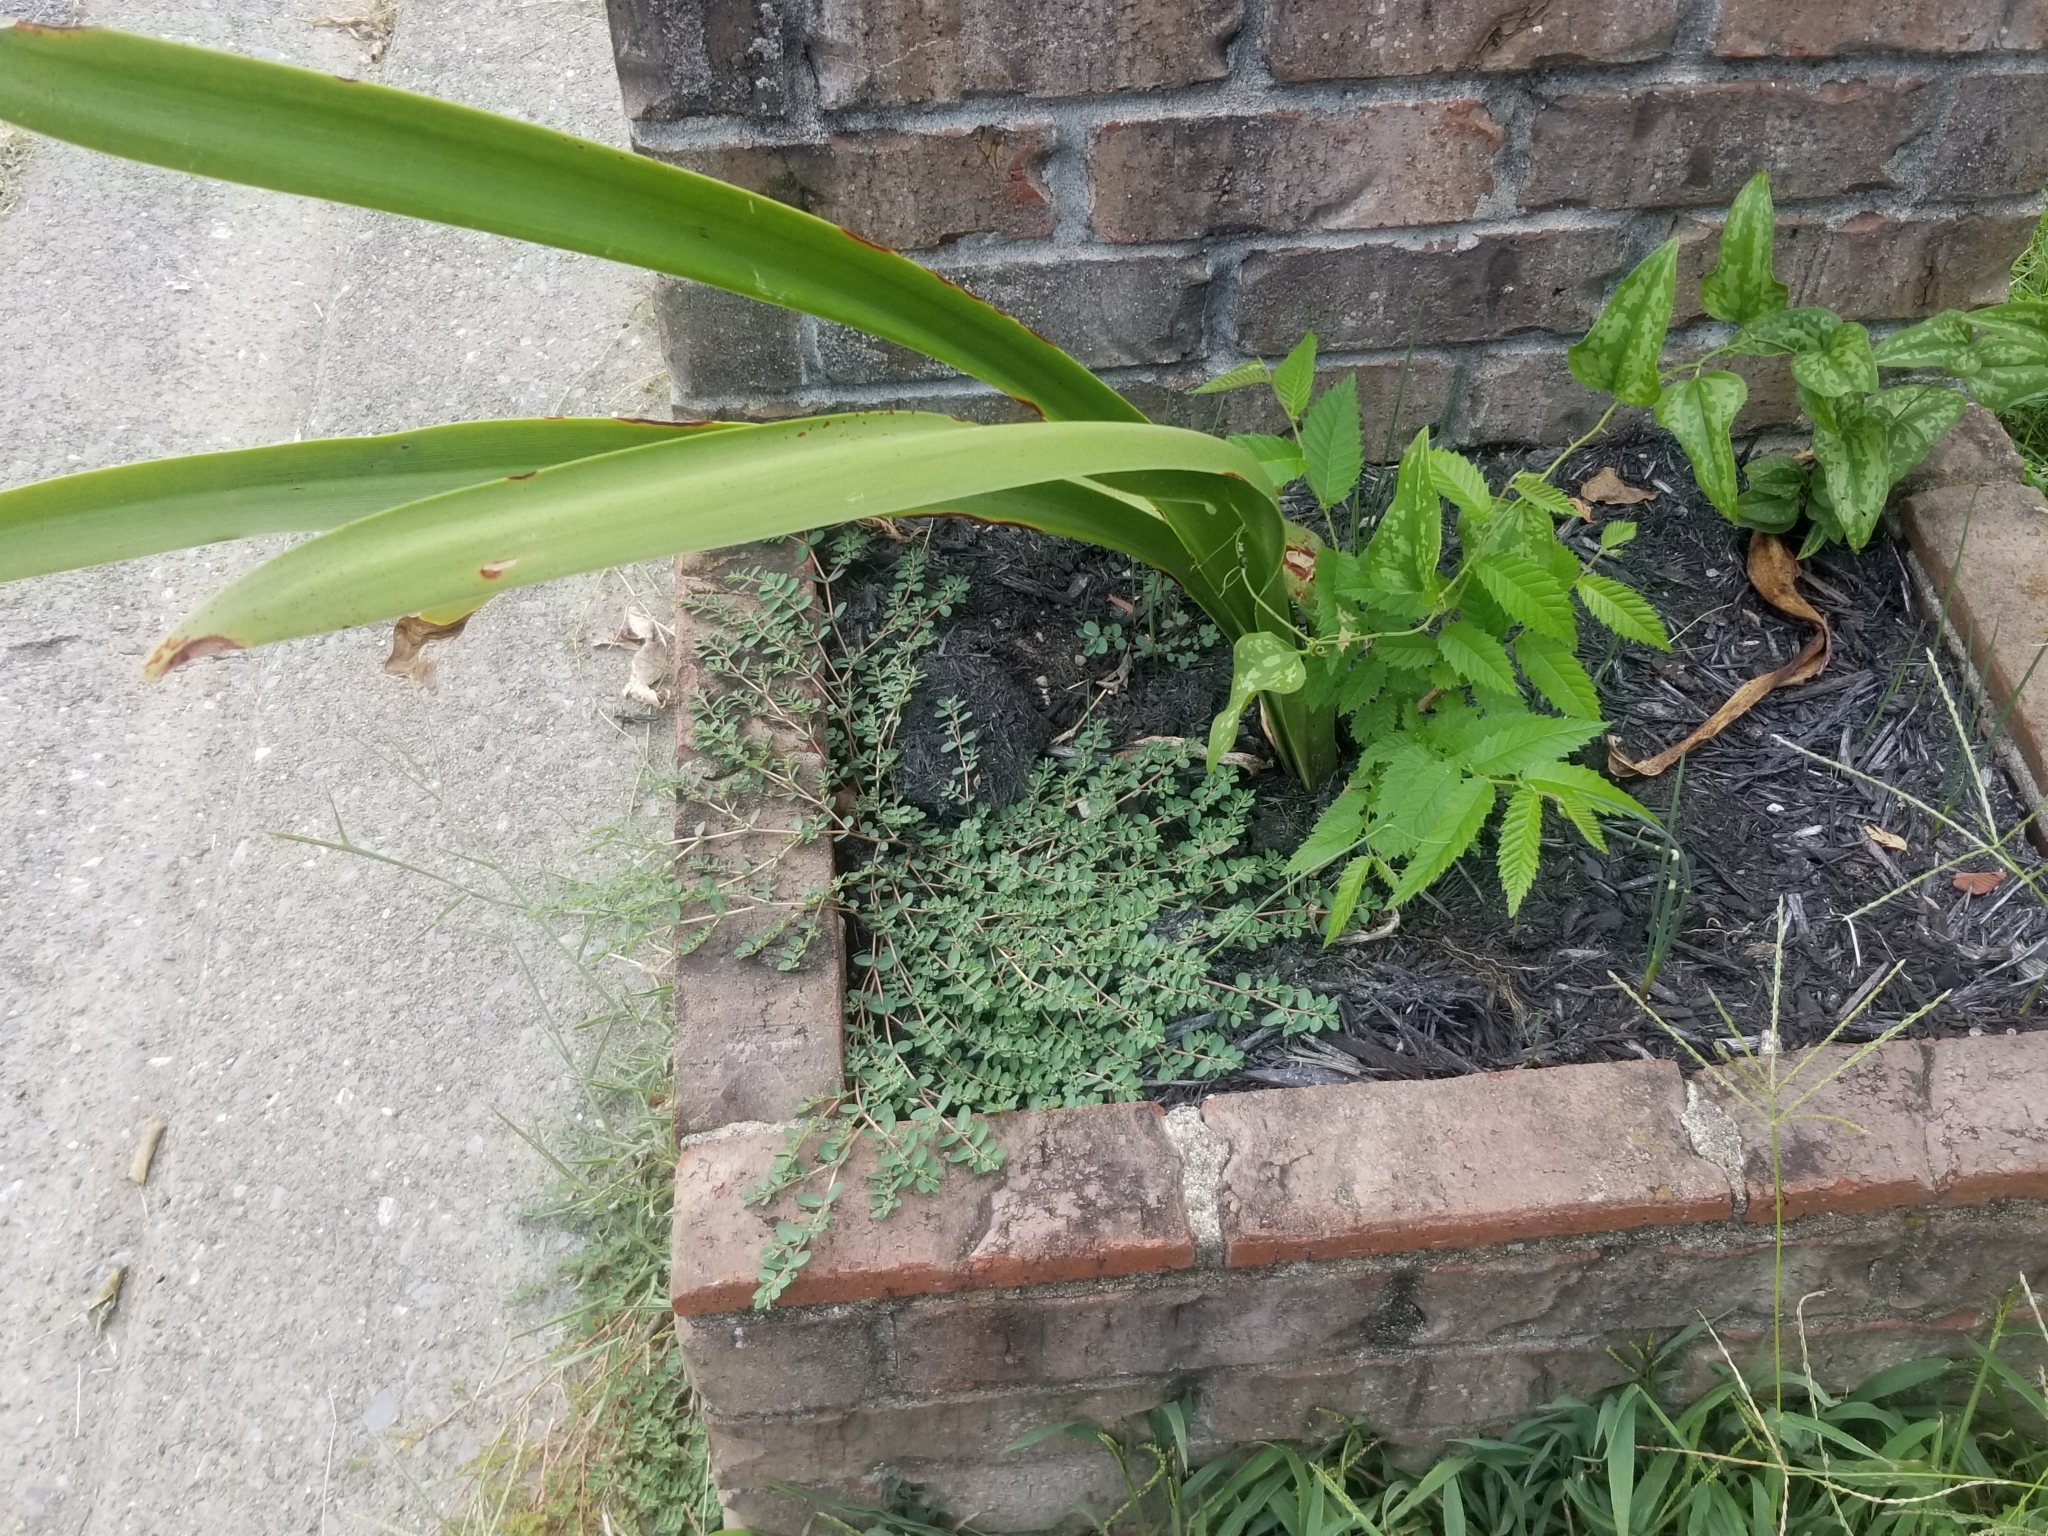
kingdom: Plantae
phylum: Tracheophyta
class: Magnoliopsida
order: Malpighiales
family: Euphorbiaceae
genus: Euphorbia
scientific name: Euphorbia prostrata
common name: Prostrate sandmat
